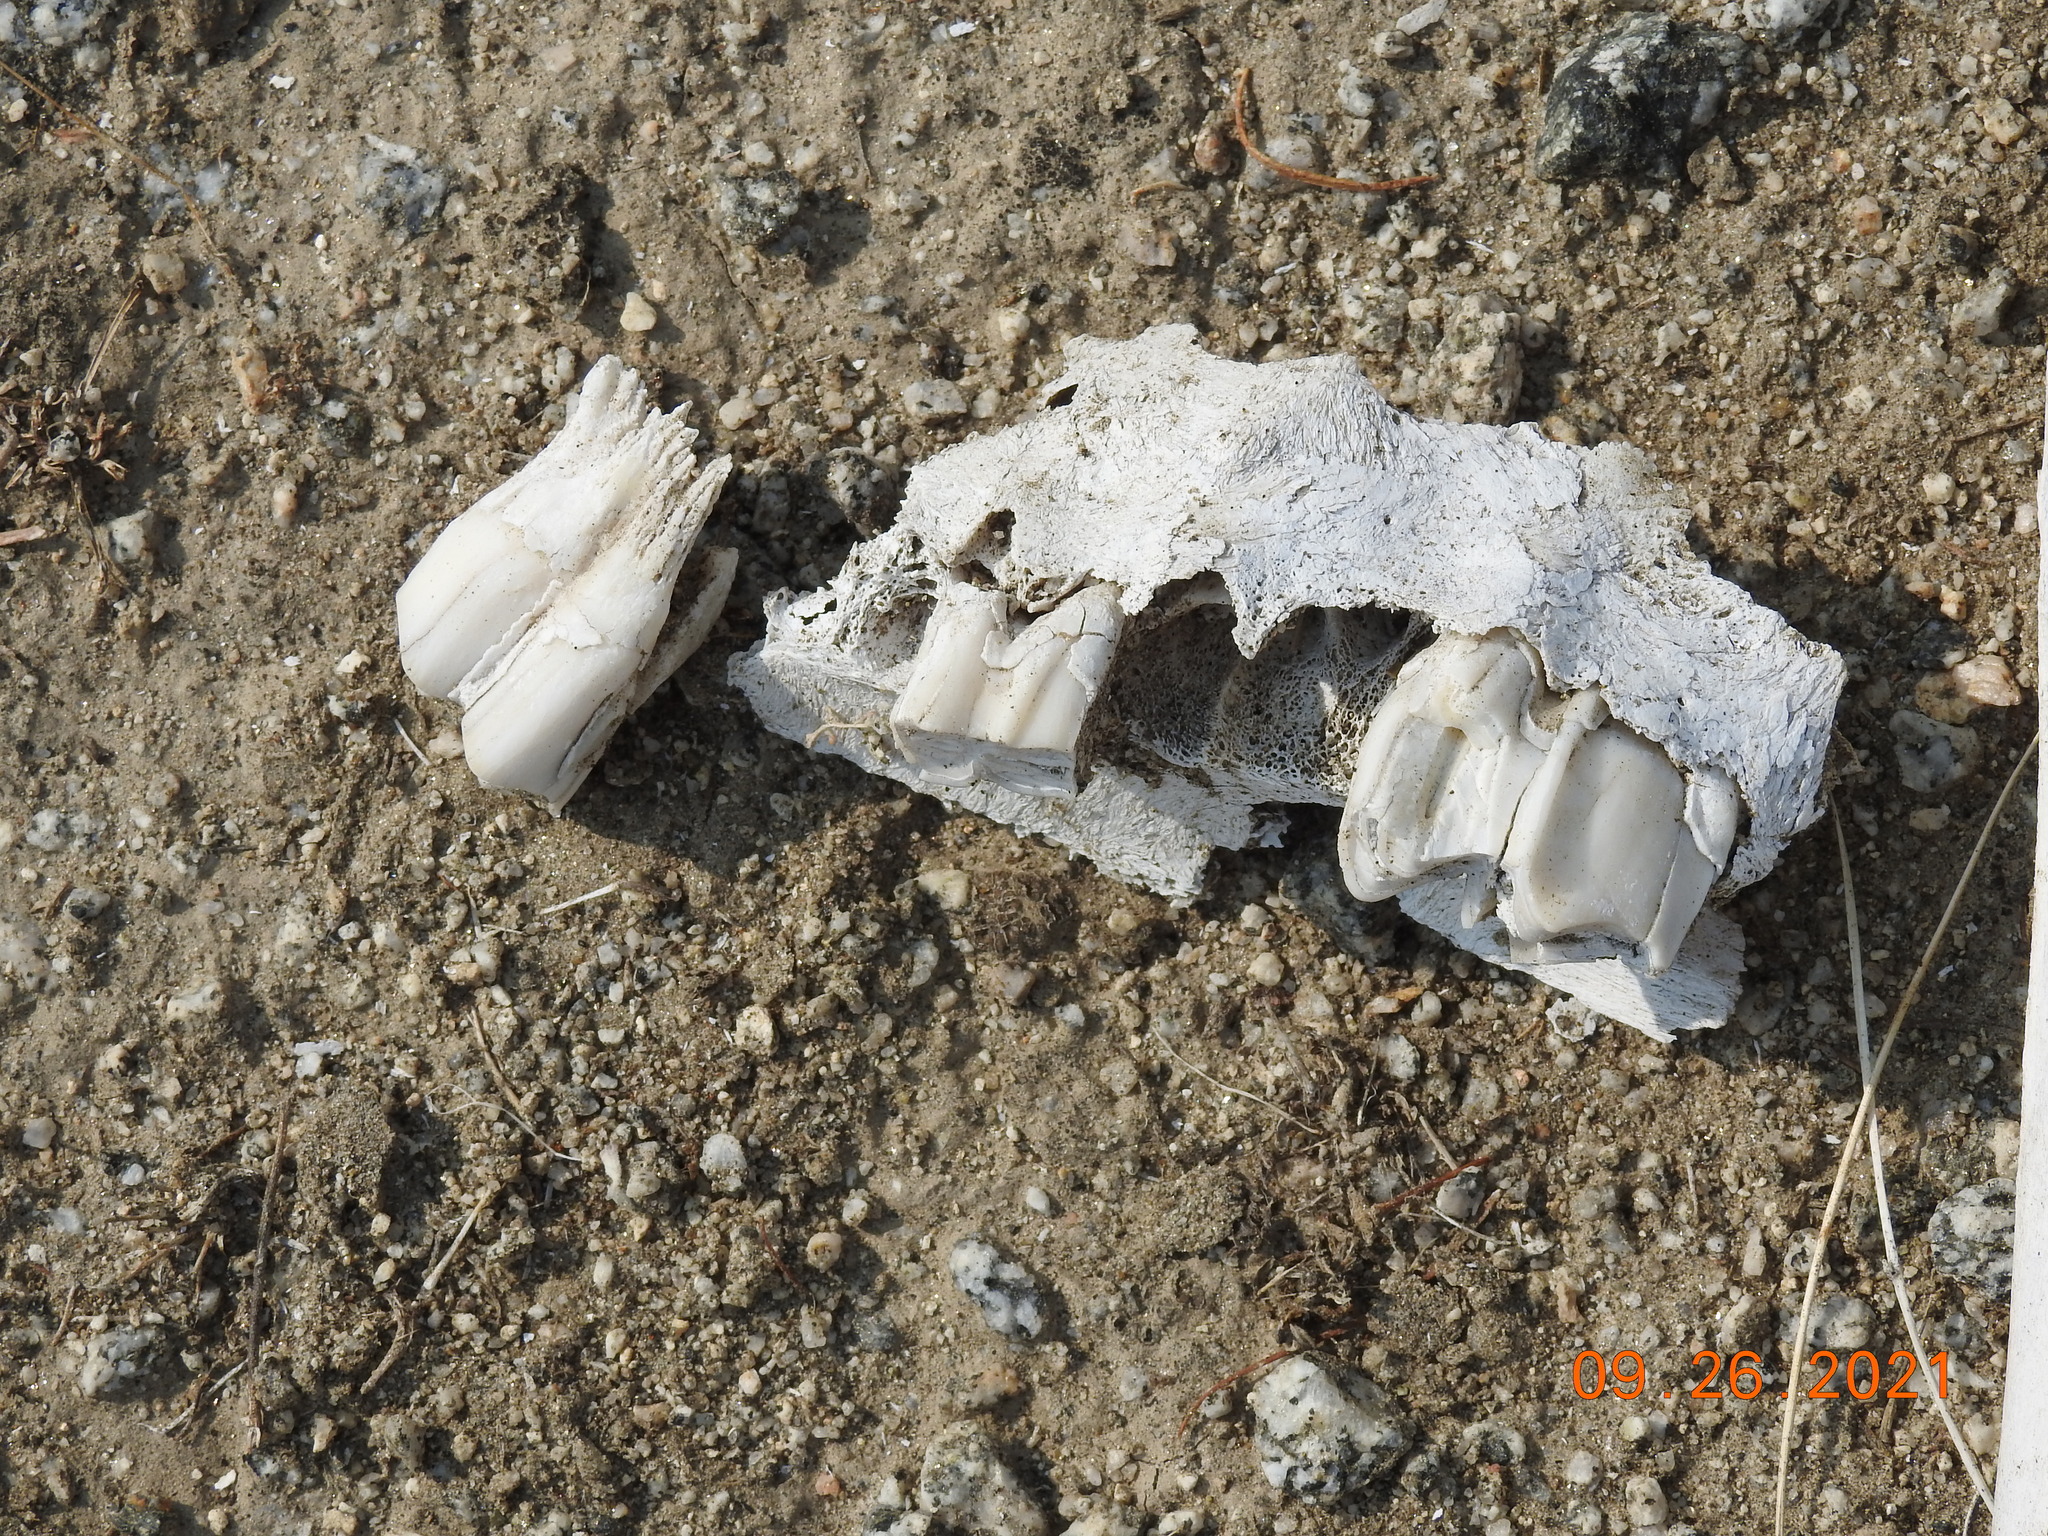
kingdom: Animalia
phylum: Chordata
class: Mammalia
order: Artiodactyla
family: Bovidae
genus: Ovis
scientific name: Ovis canadensis
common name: Bighorn sheep
